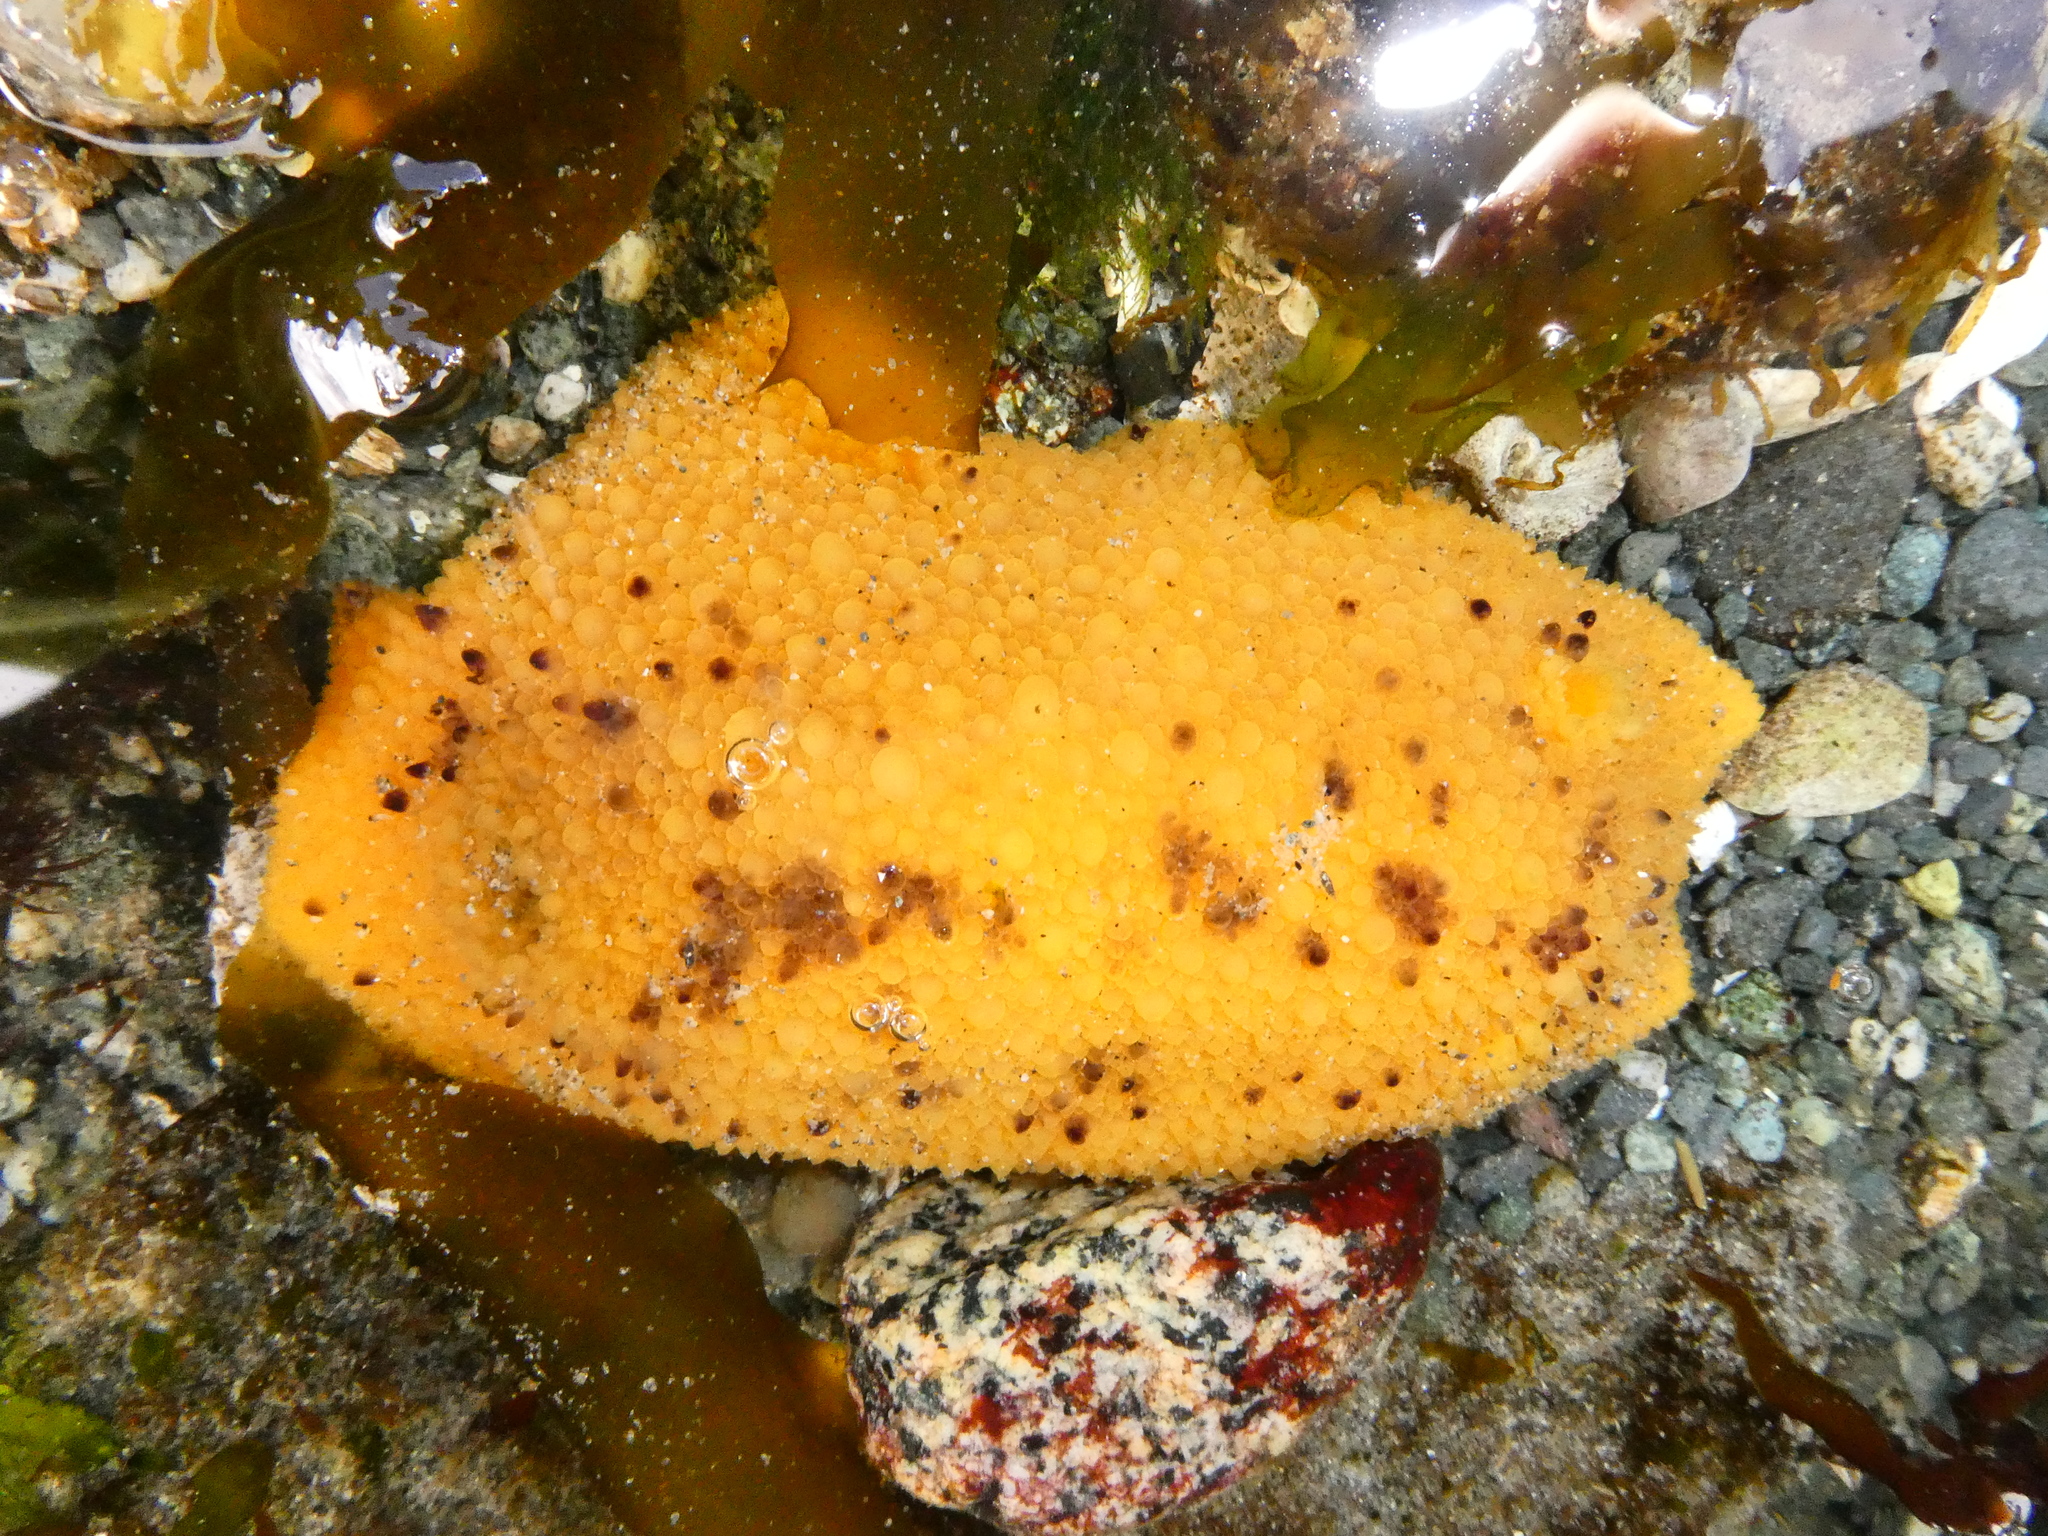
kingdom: Animalia
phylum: Mollusca
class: Gastropoda
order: Nudibranchia
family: Dorididae
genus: Doris
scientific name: Doris montereyensis
